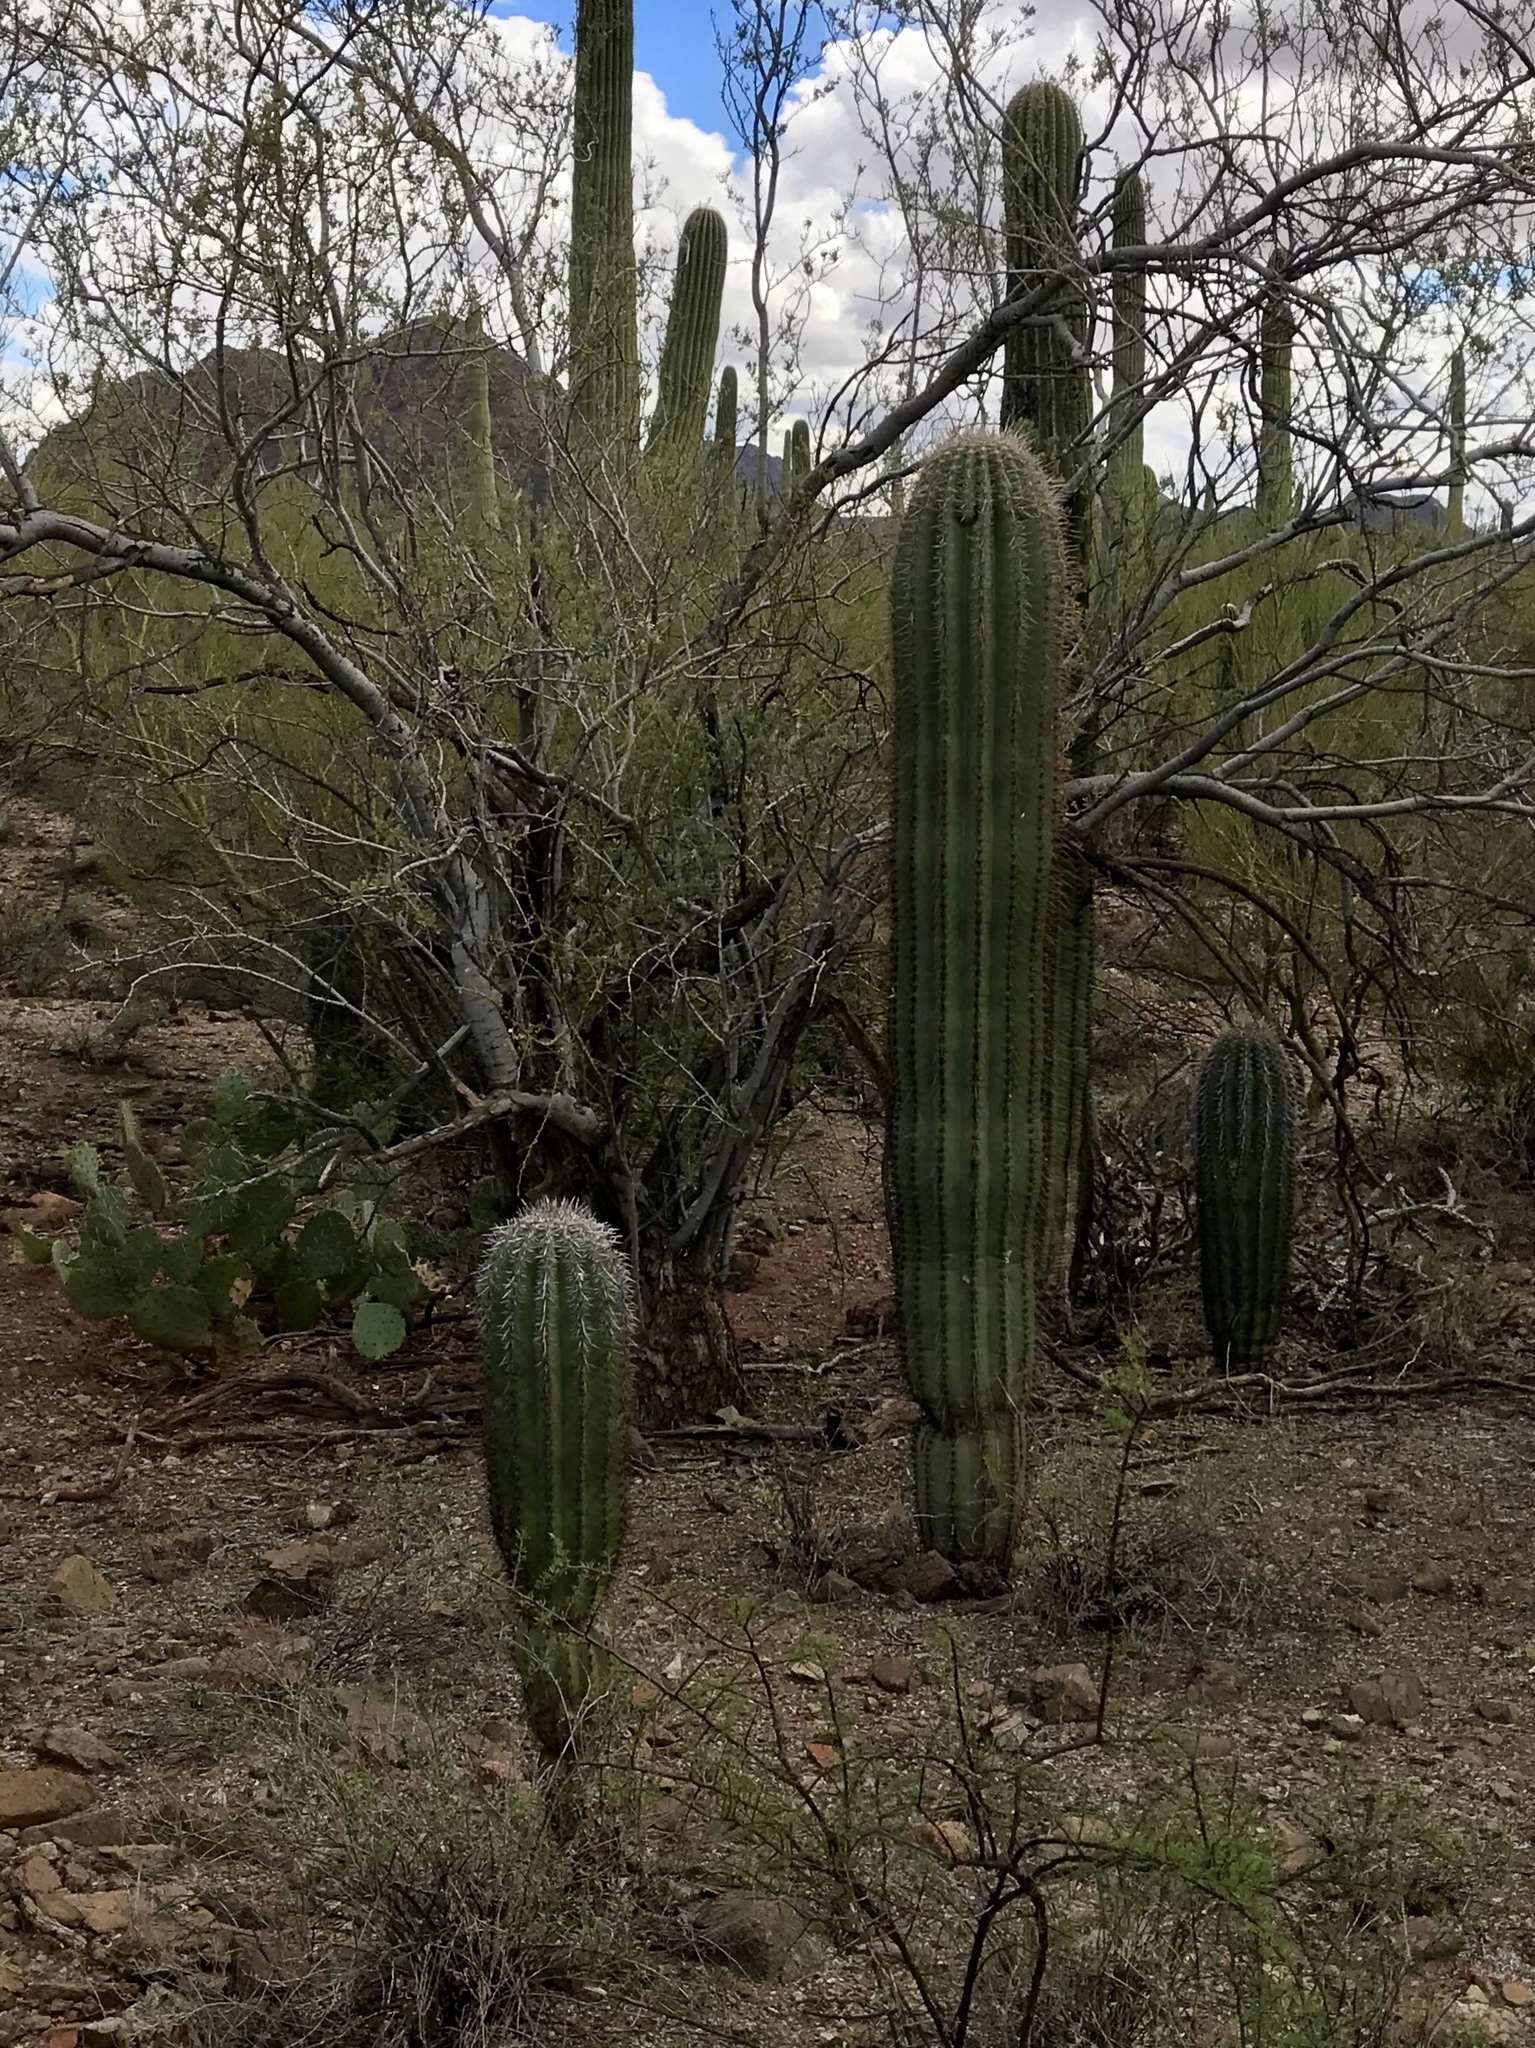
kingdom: Plantae
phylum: Tracheophyta
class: Magnoliopsida
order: Caryophyllales
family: Cactaceae
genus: Carnegiea
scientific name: Carnegiea gigantea
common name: Saguaro
